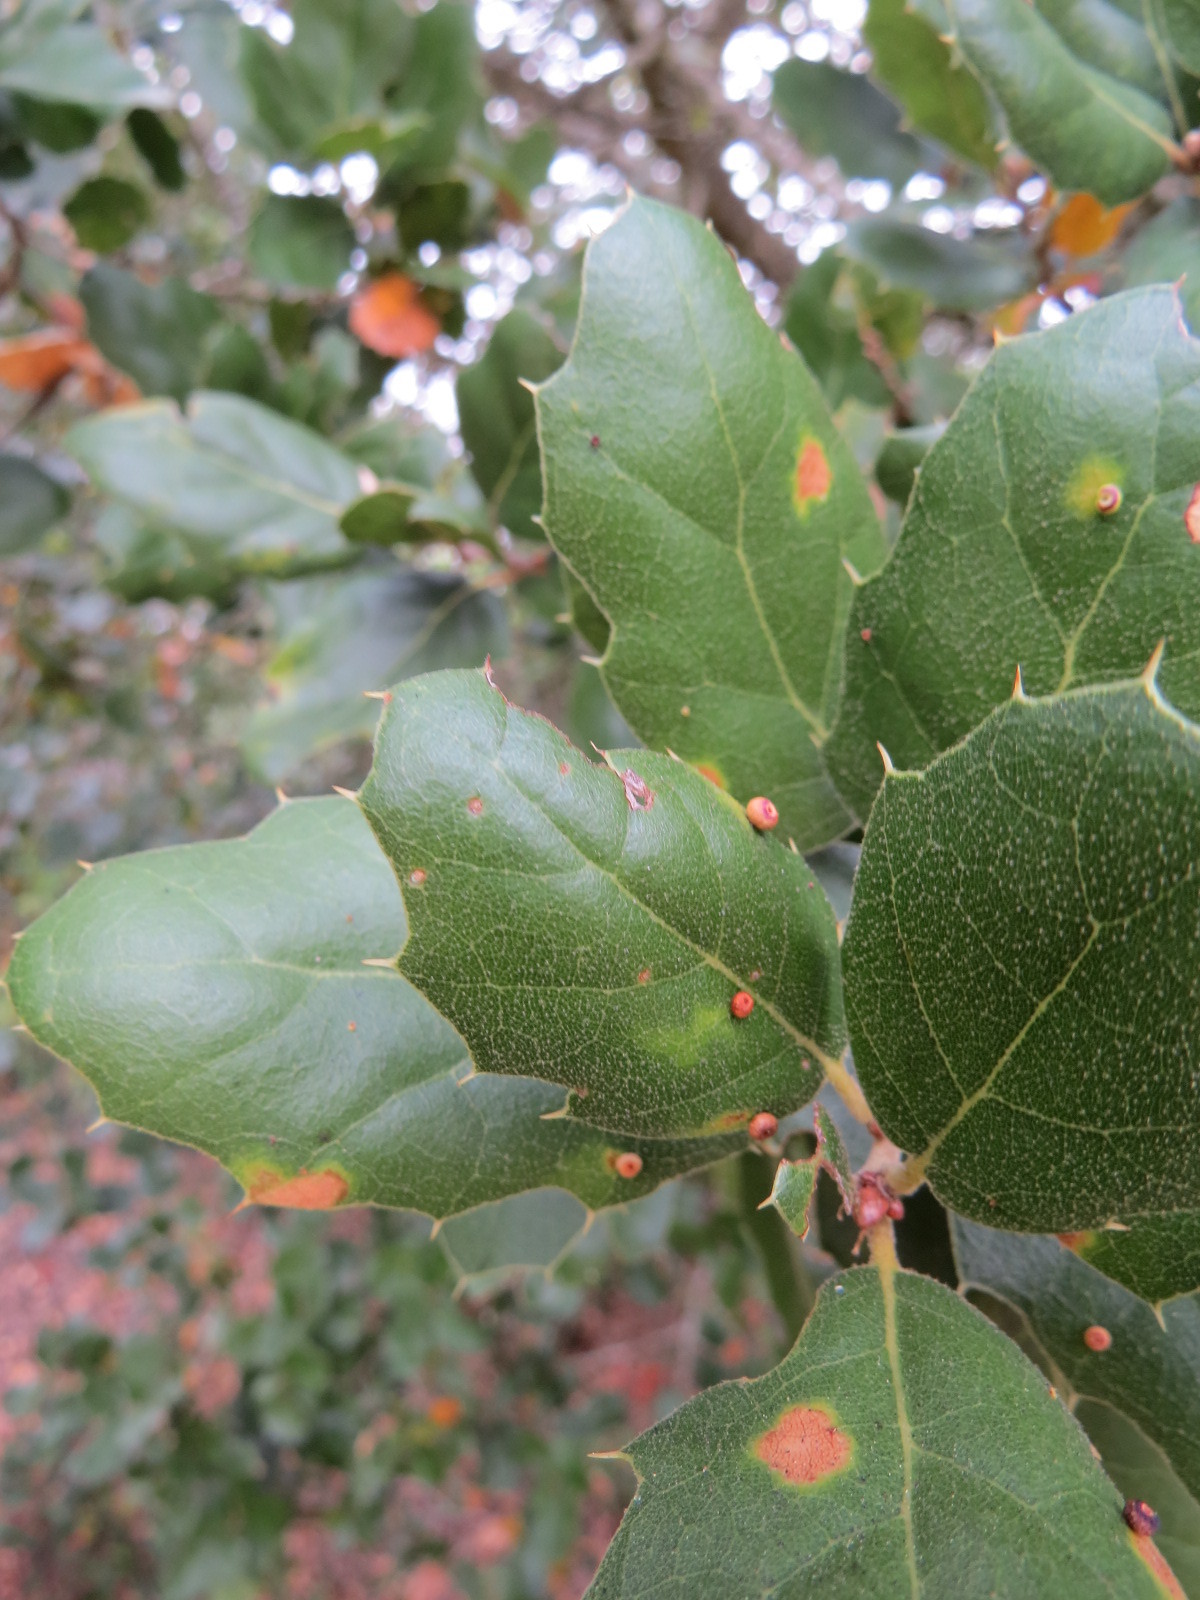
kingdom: Animalia
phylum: Arthropoda
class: Insecta
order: Hymenoptera
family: Cynipidae
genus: Dryocosmus
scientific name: Dryocosmus
